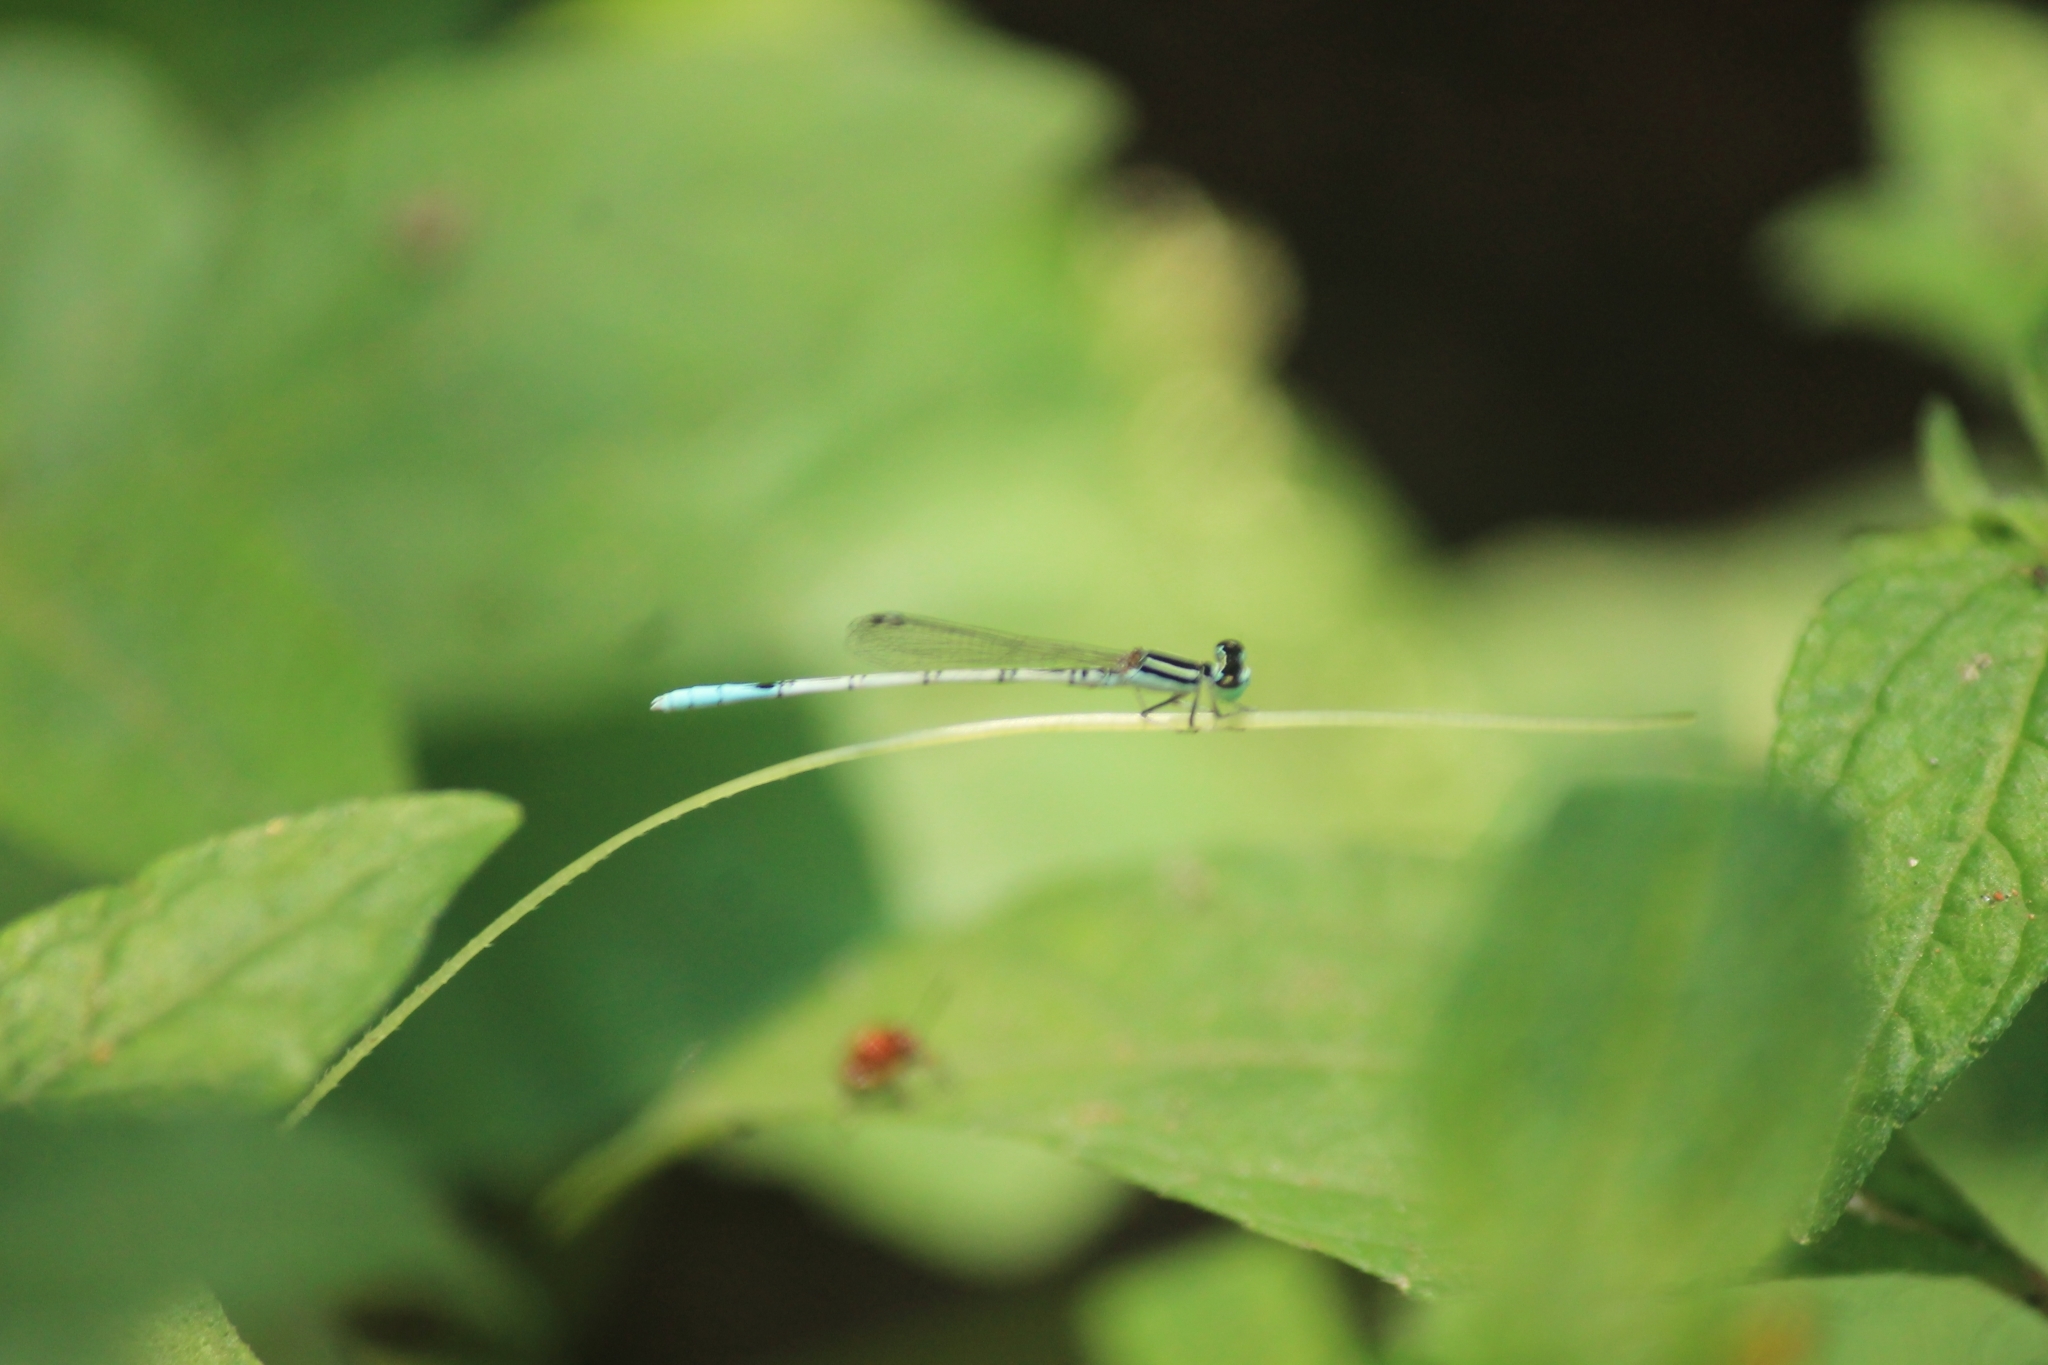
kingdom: Animalia
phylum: Arthropoda
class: Insecta
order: Odonata
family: Coenagrionidae
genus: Agriocnemis
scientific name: Agriocnemis pieris
